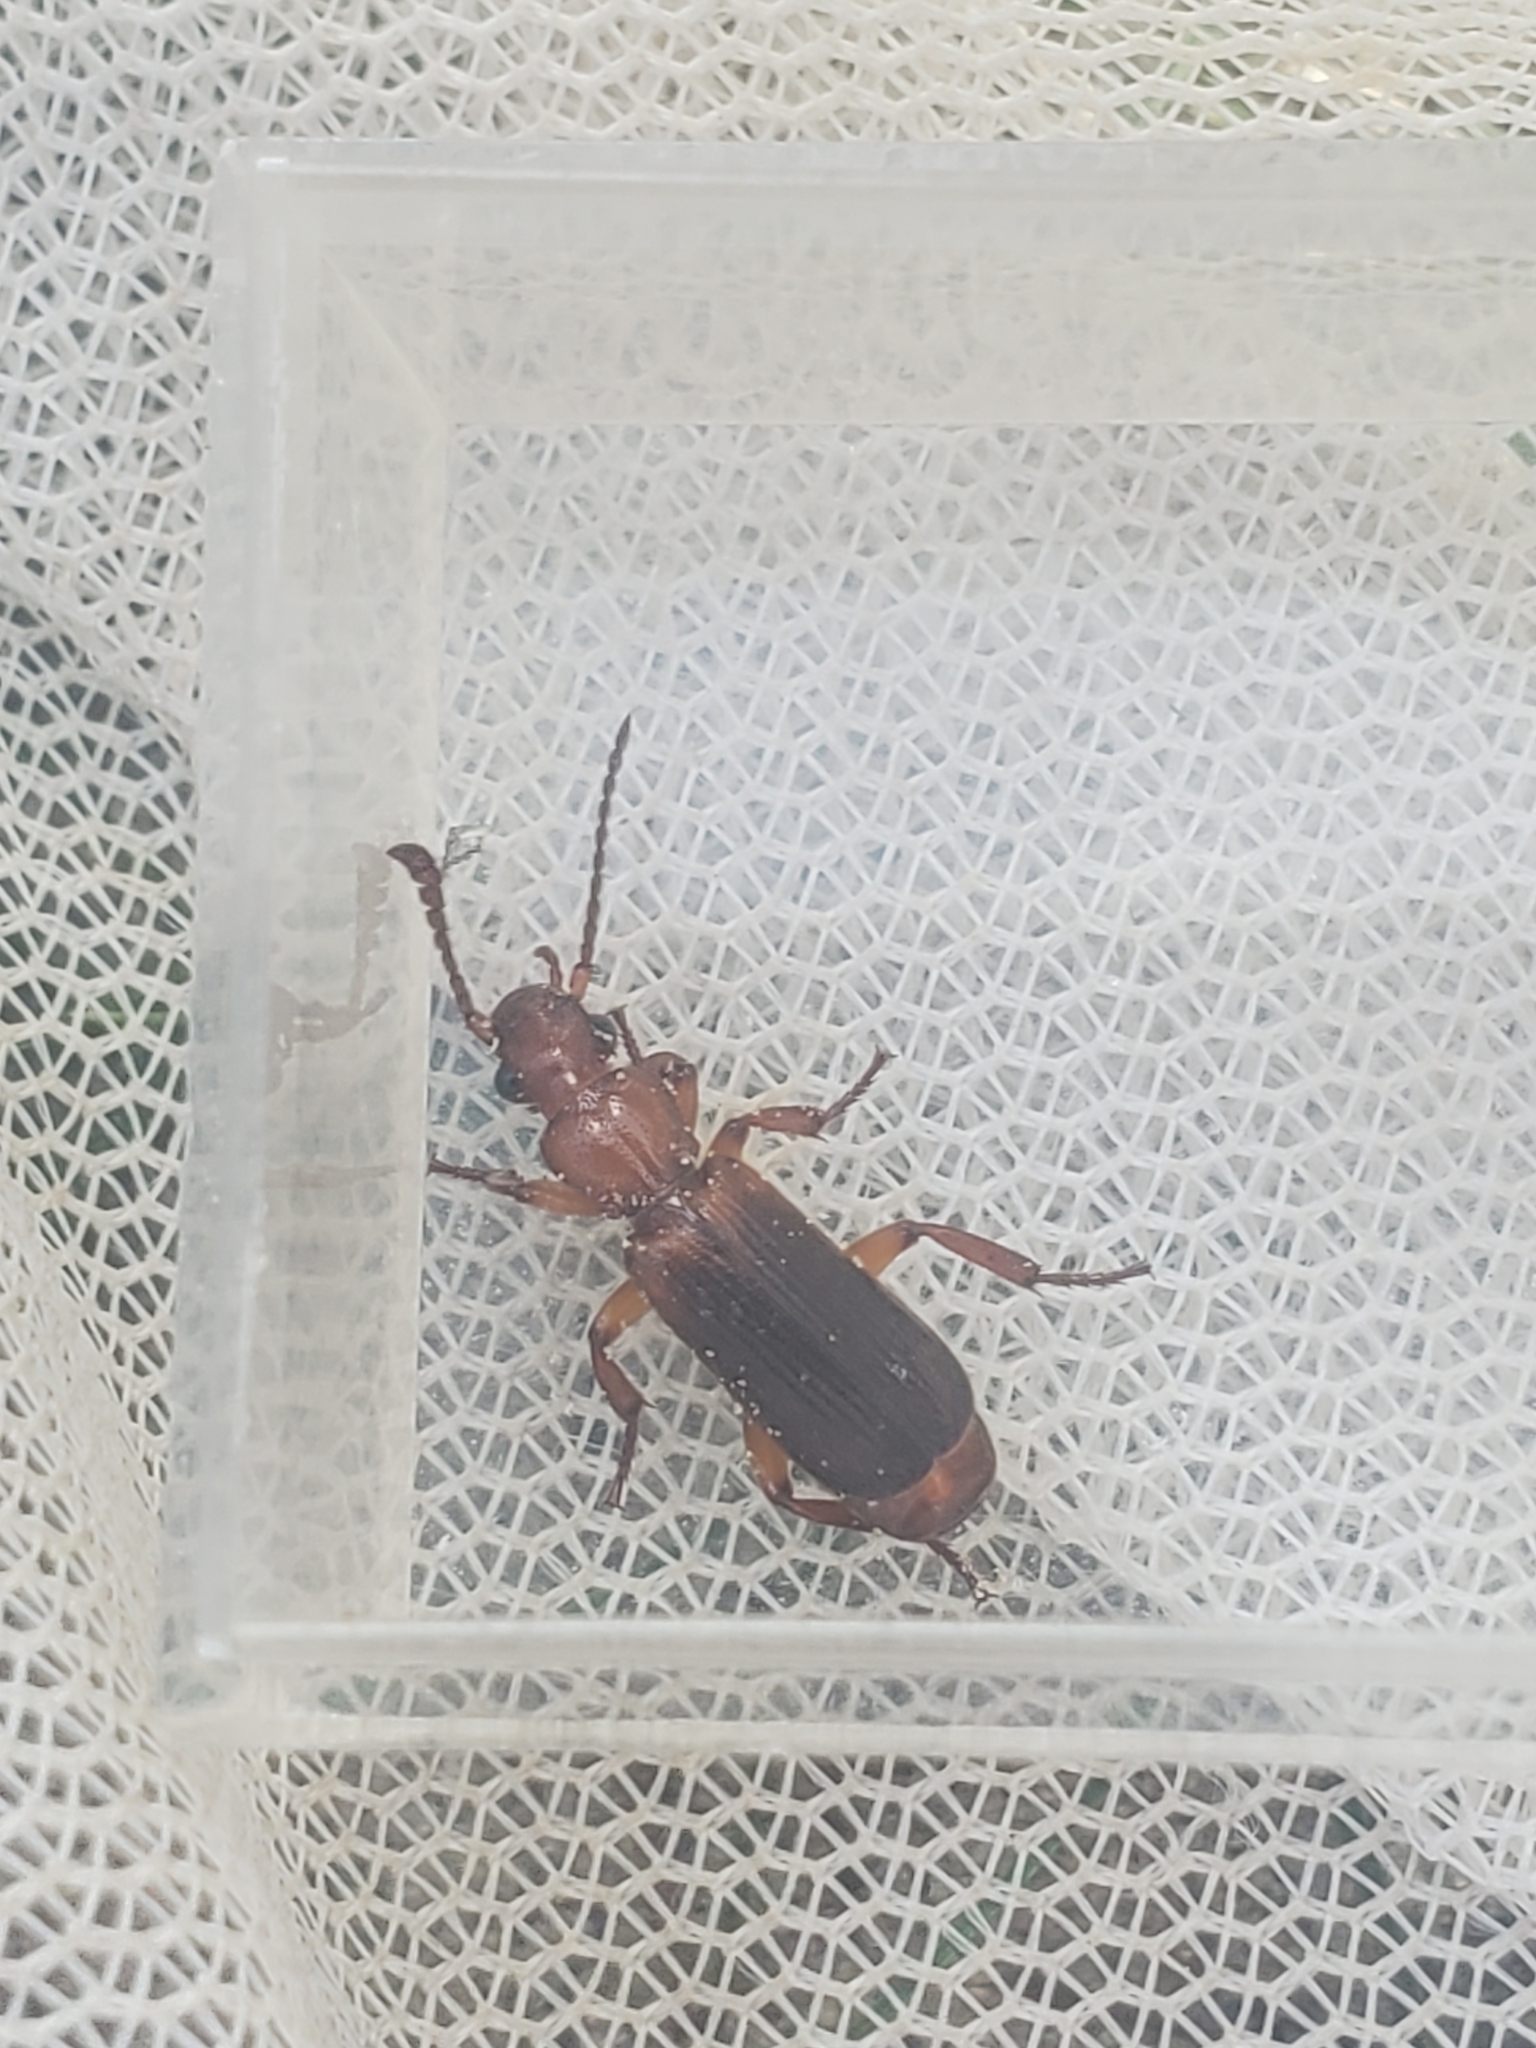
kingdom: Animalia
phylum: Arthropoda
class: Insecta
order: Coleoptera
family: Carabidae
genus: Helluomorphoides
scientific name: Helluomorphoides praeustus
